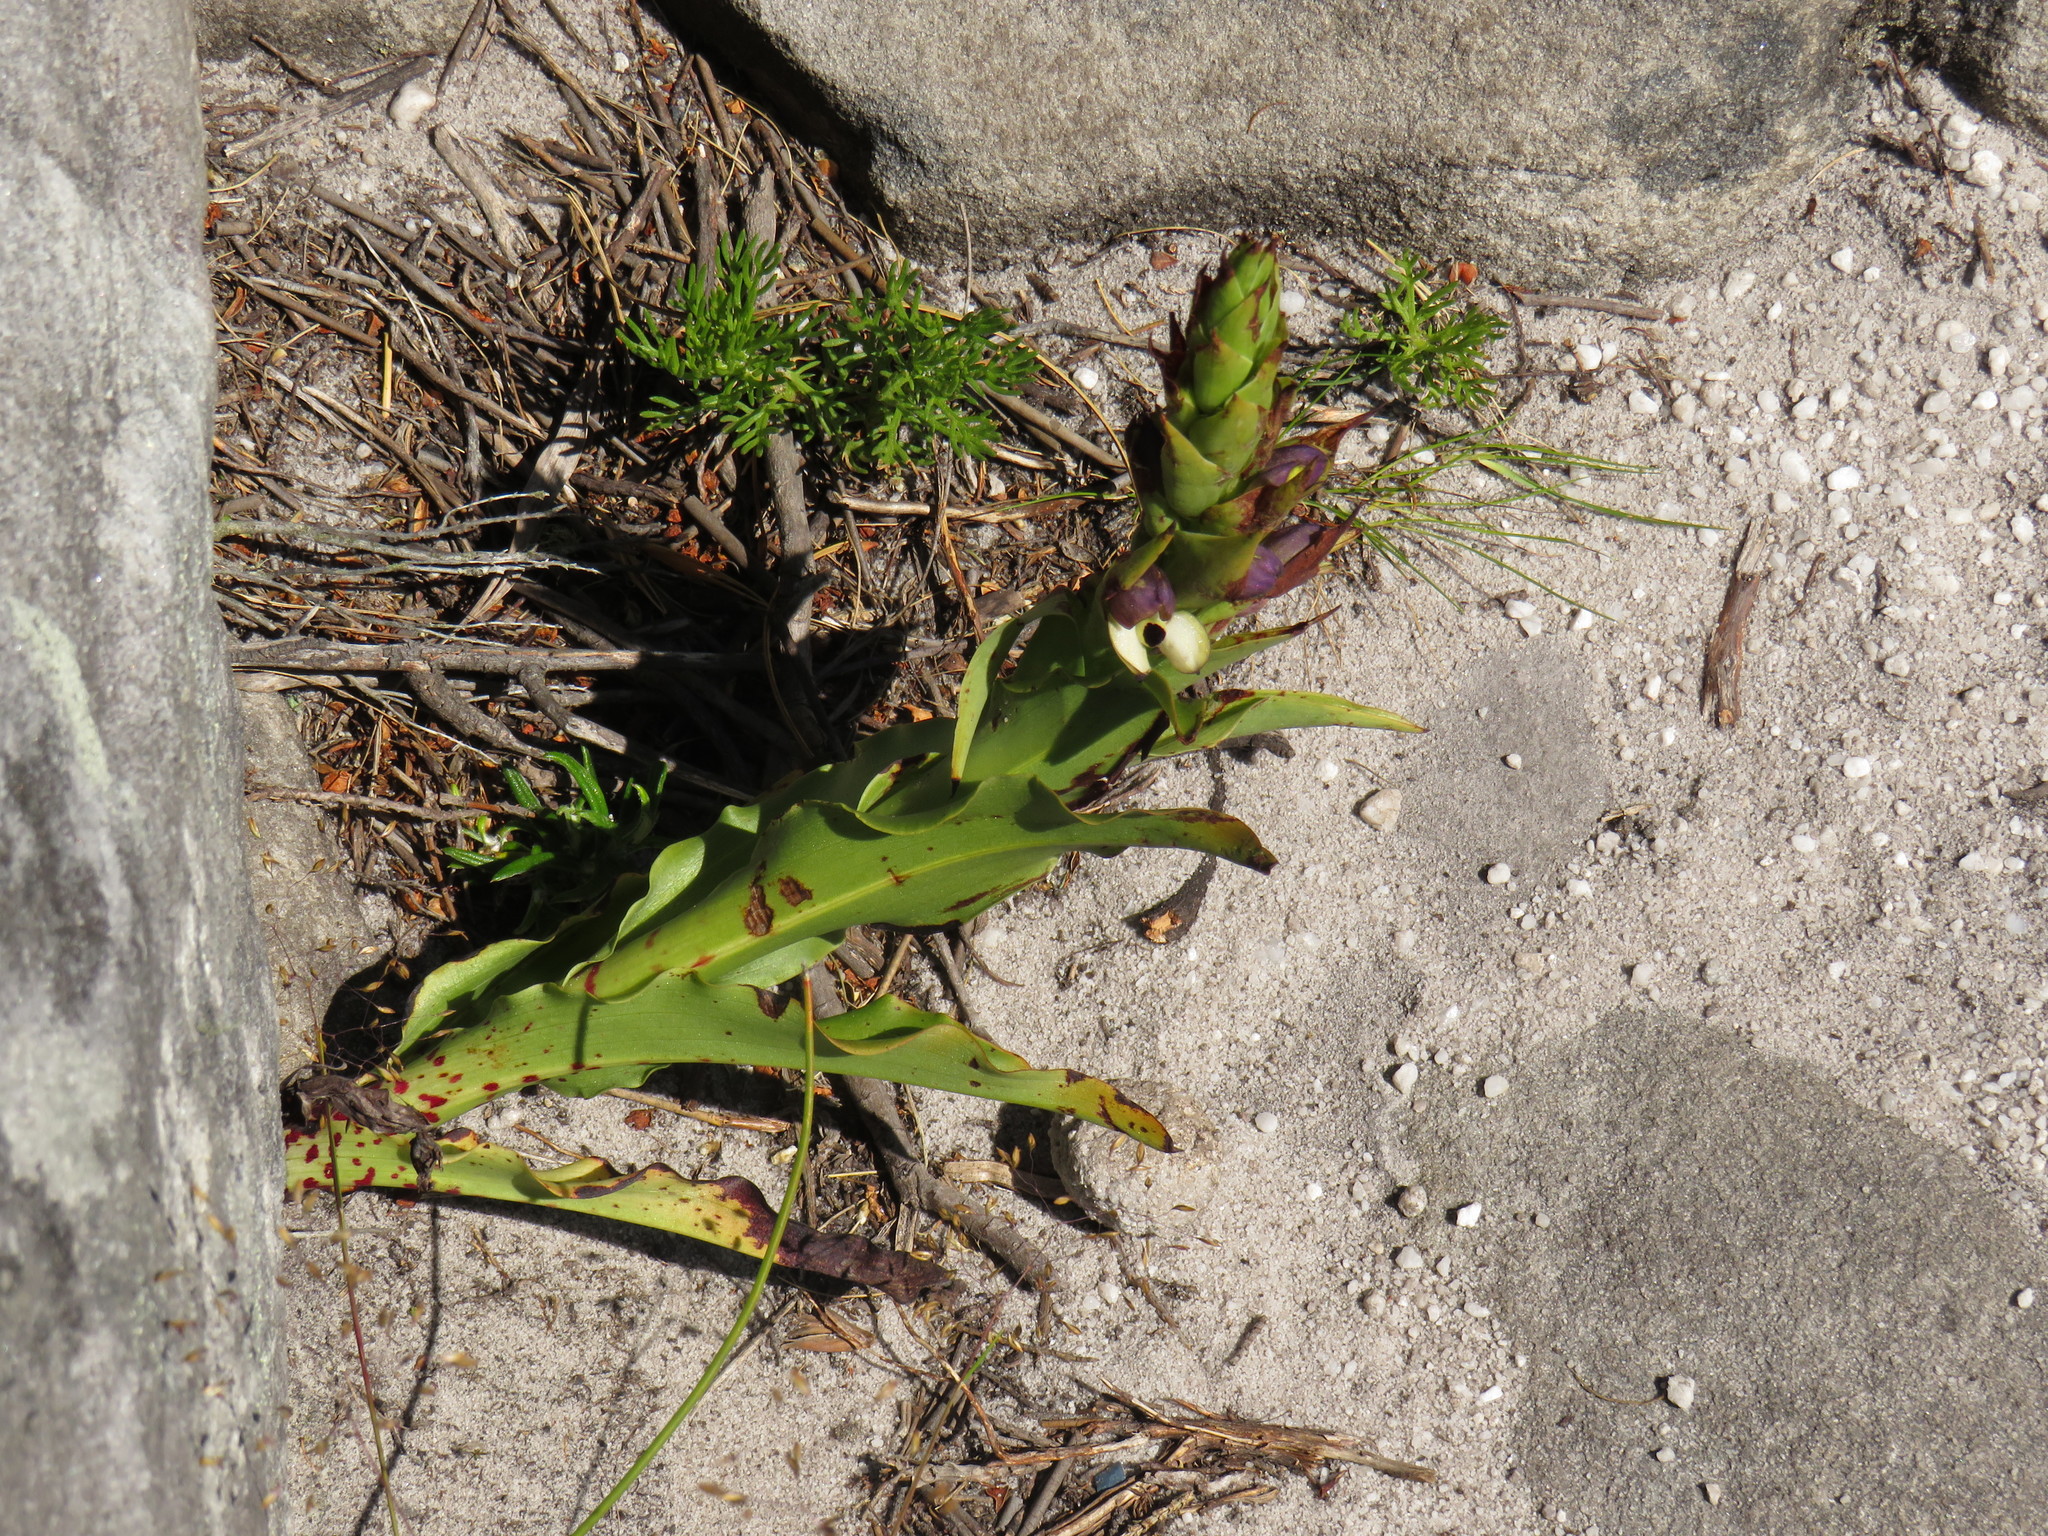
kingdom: Plantae
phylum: Tracheophyta
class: Liliopsida
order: Asparagales
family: Orchidaceae
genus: Disa
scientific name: Disa cornuta
